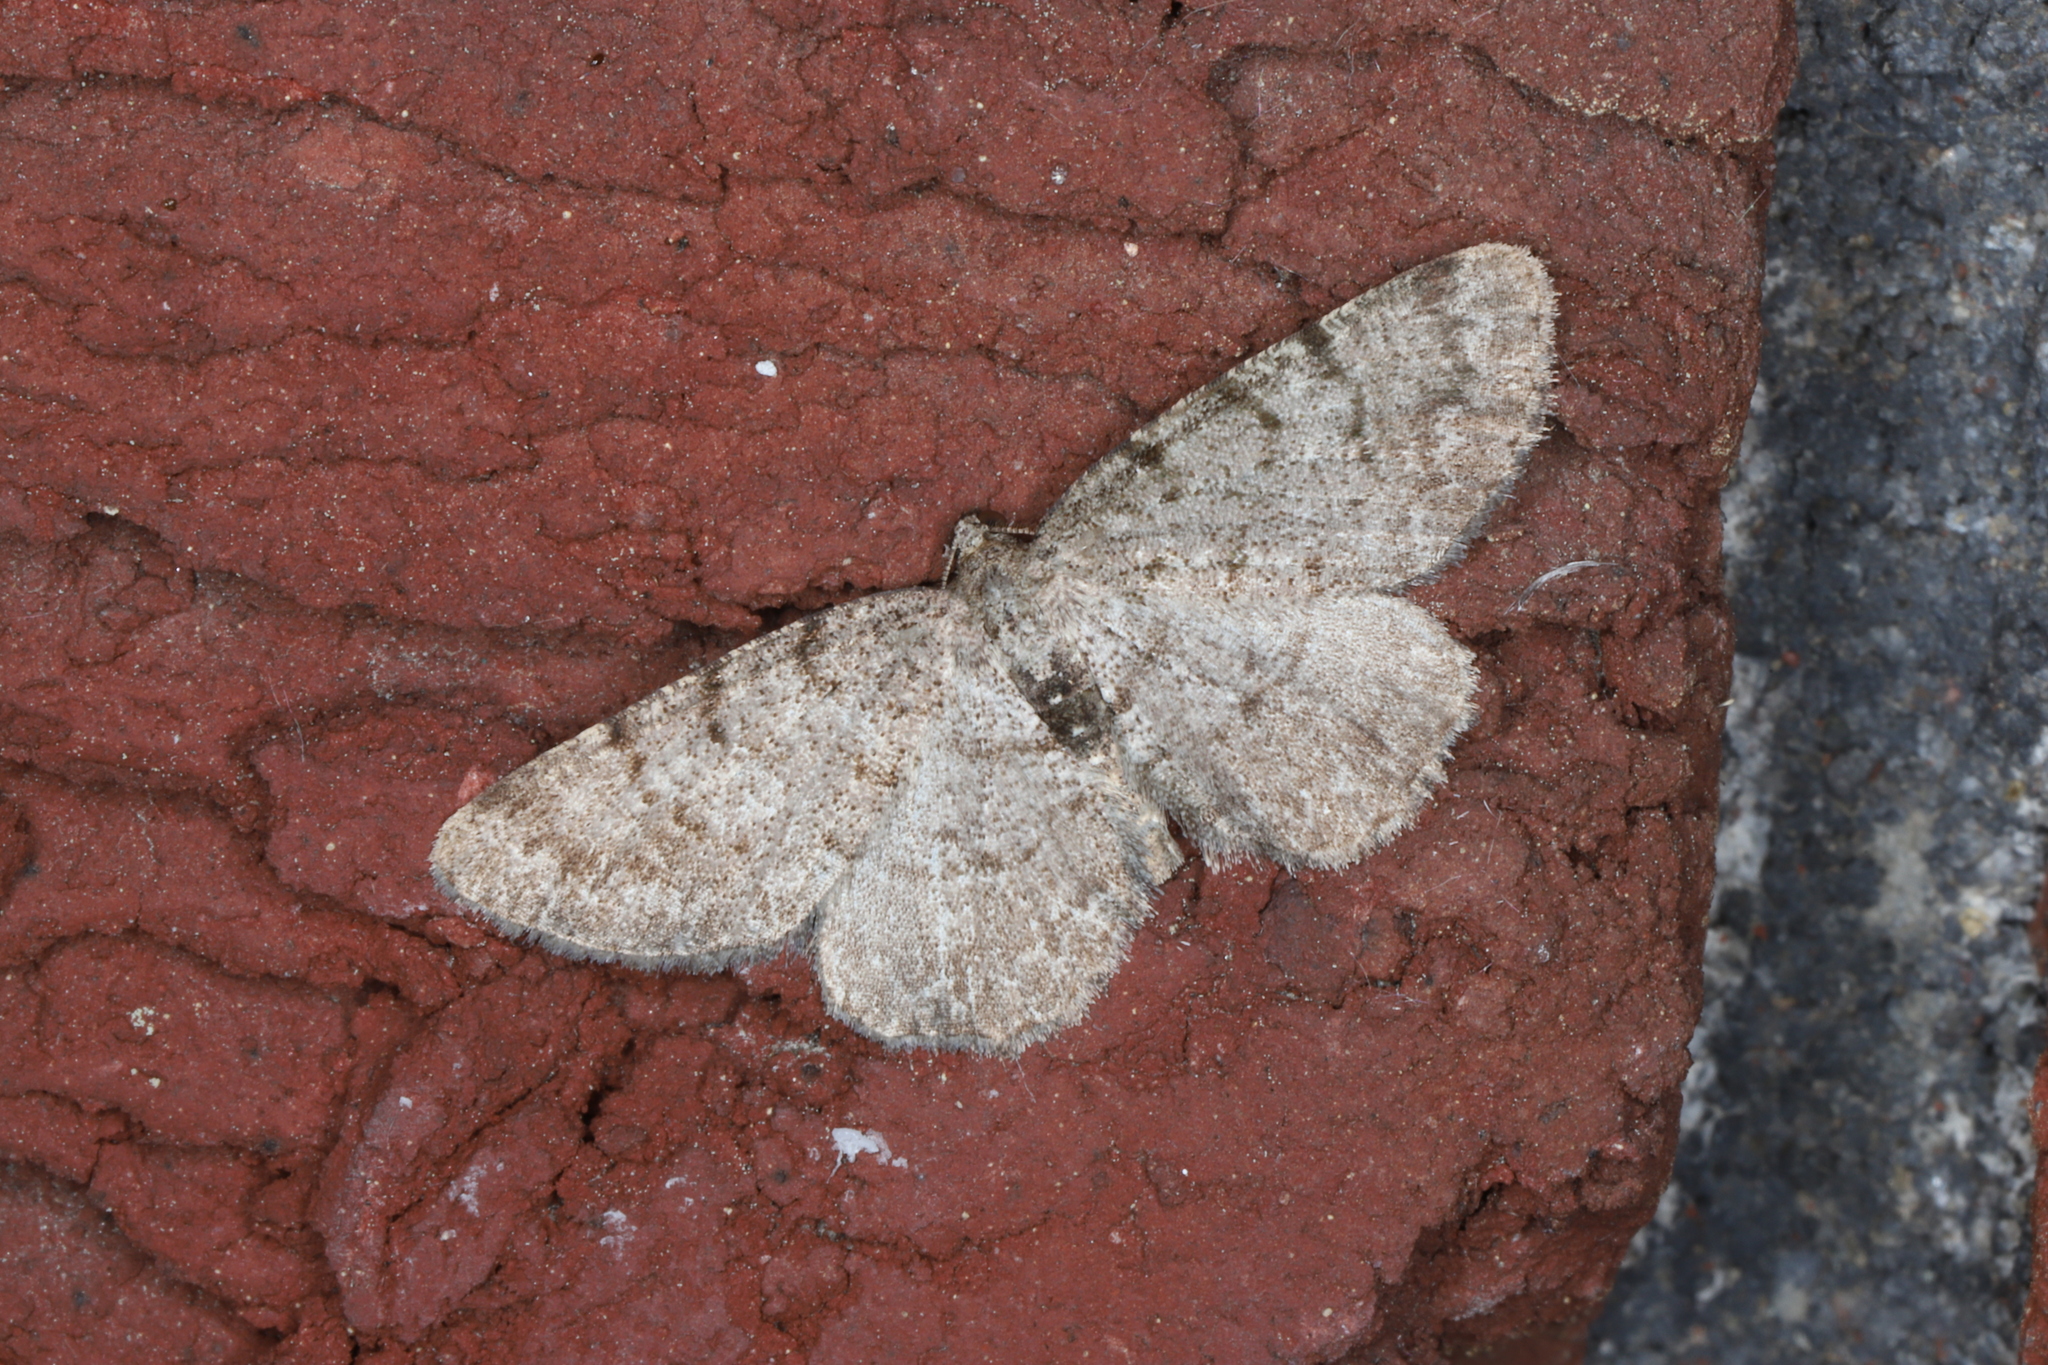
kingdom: Animalia
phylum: Arthropoda
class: Insecta
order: Lepidoptera
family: Geometridae
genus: Aethalura
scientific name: Aethalura intertexta
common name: Four-barred gray
